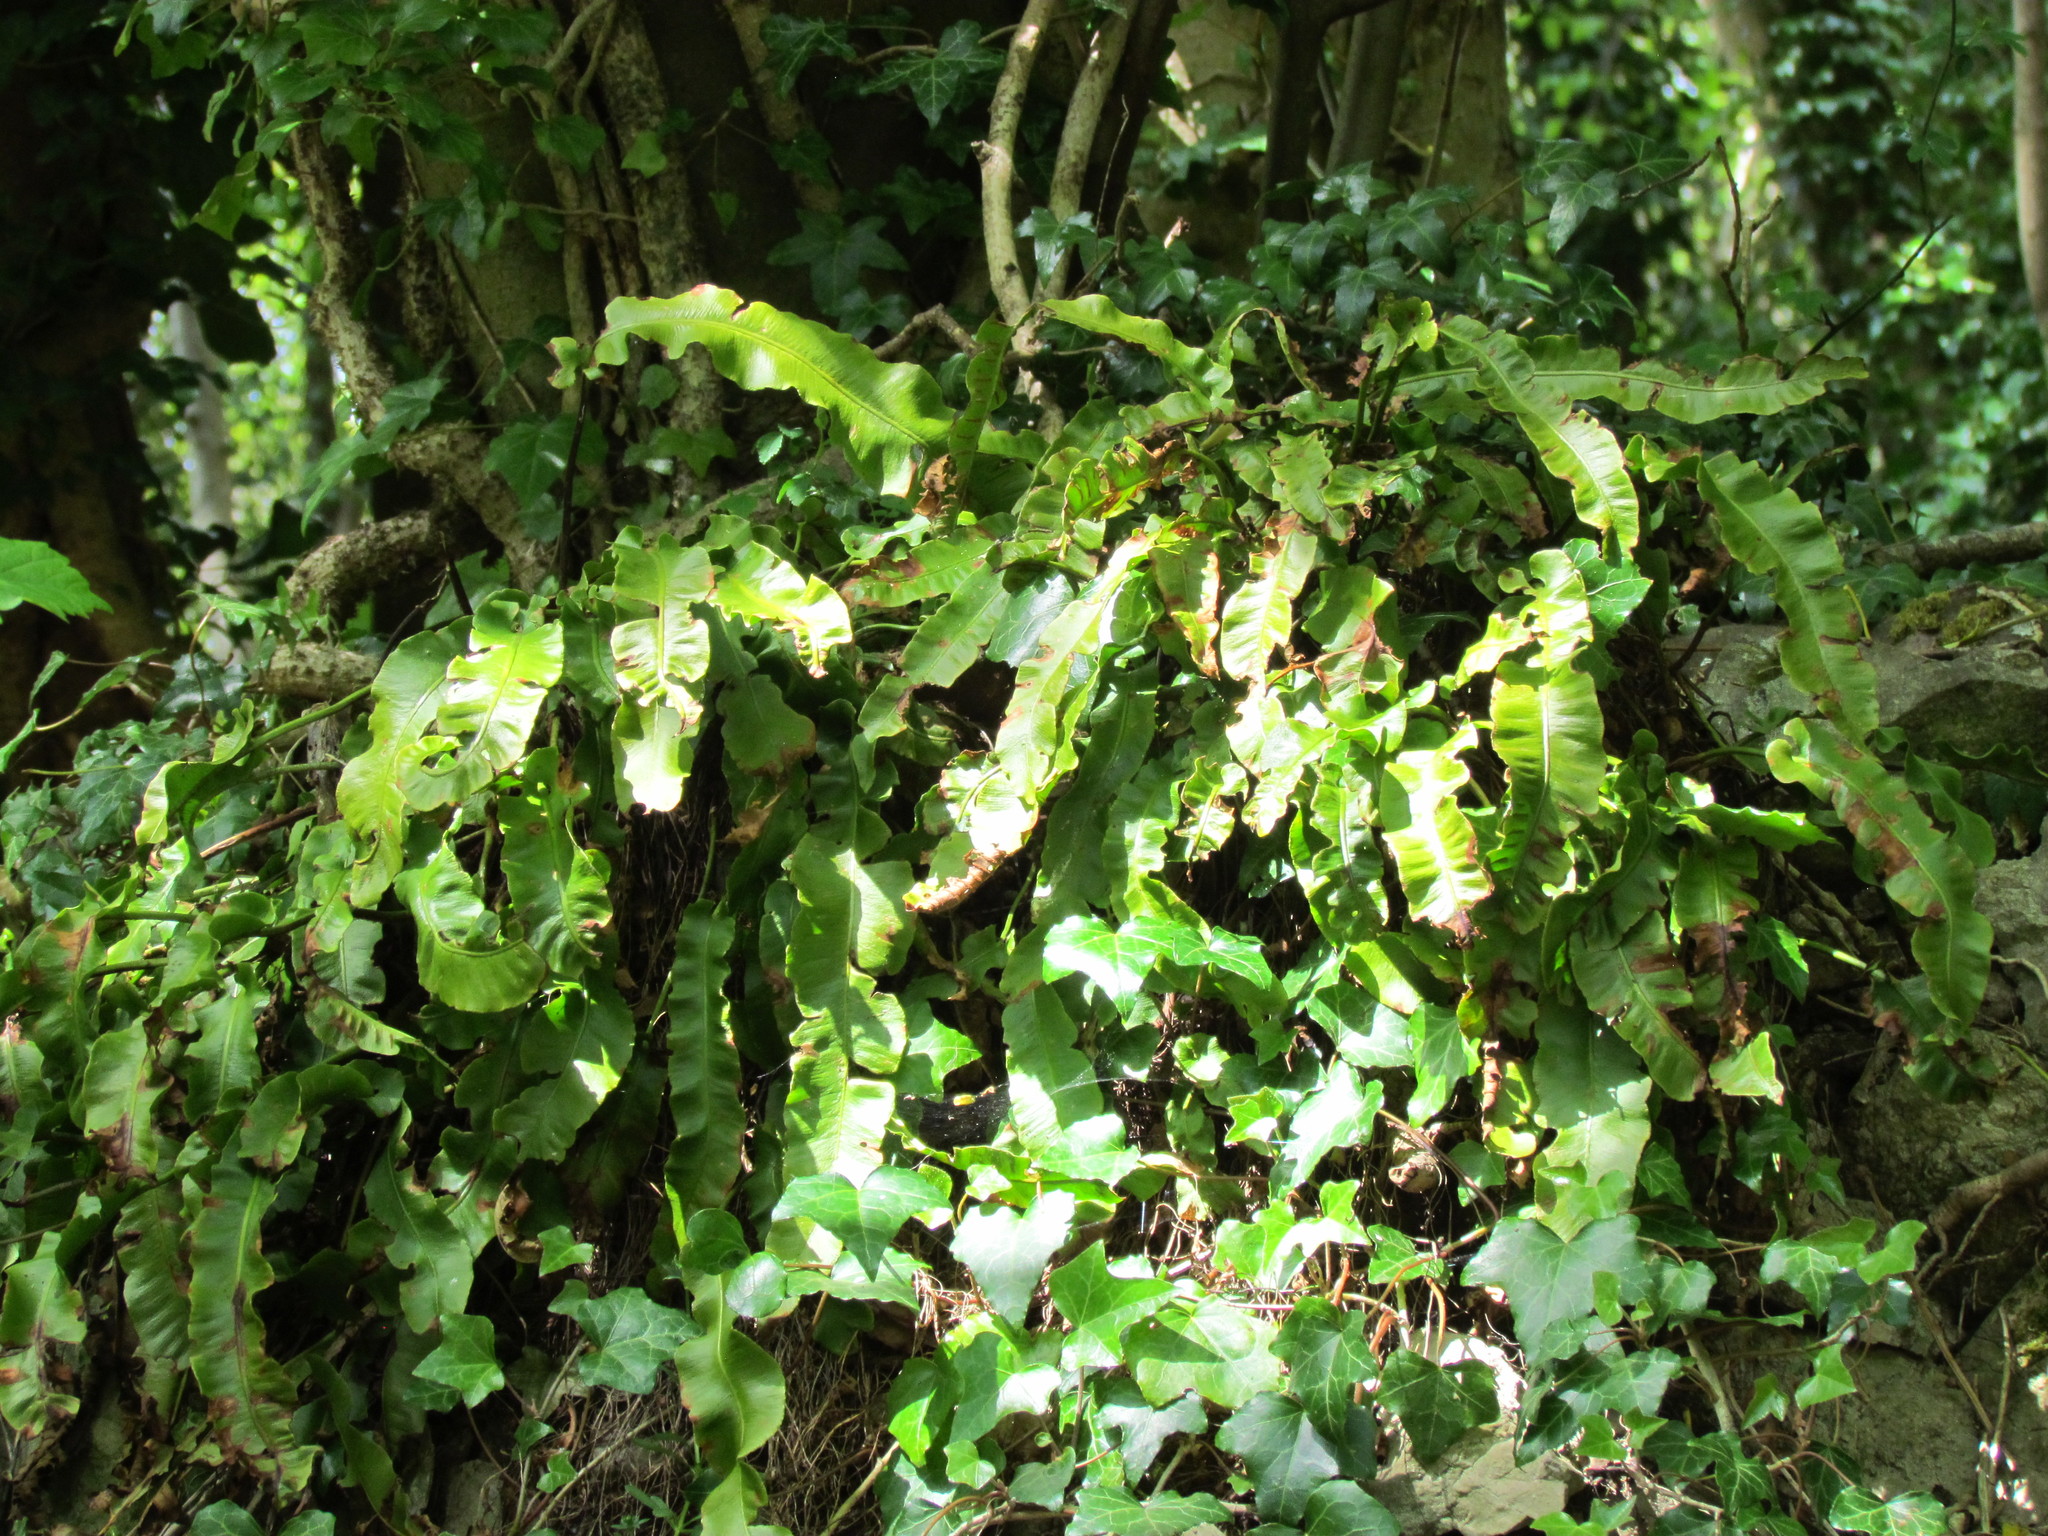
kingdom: Plantae
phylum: Tracheophyta
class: Polypodiopsida
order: Polypodiales
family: Aspleniaceae
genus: Asplenium
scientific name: Asplenium scolopendrium
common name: Hart's-tongue fern
